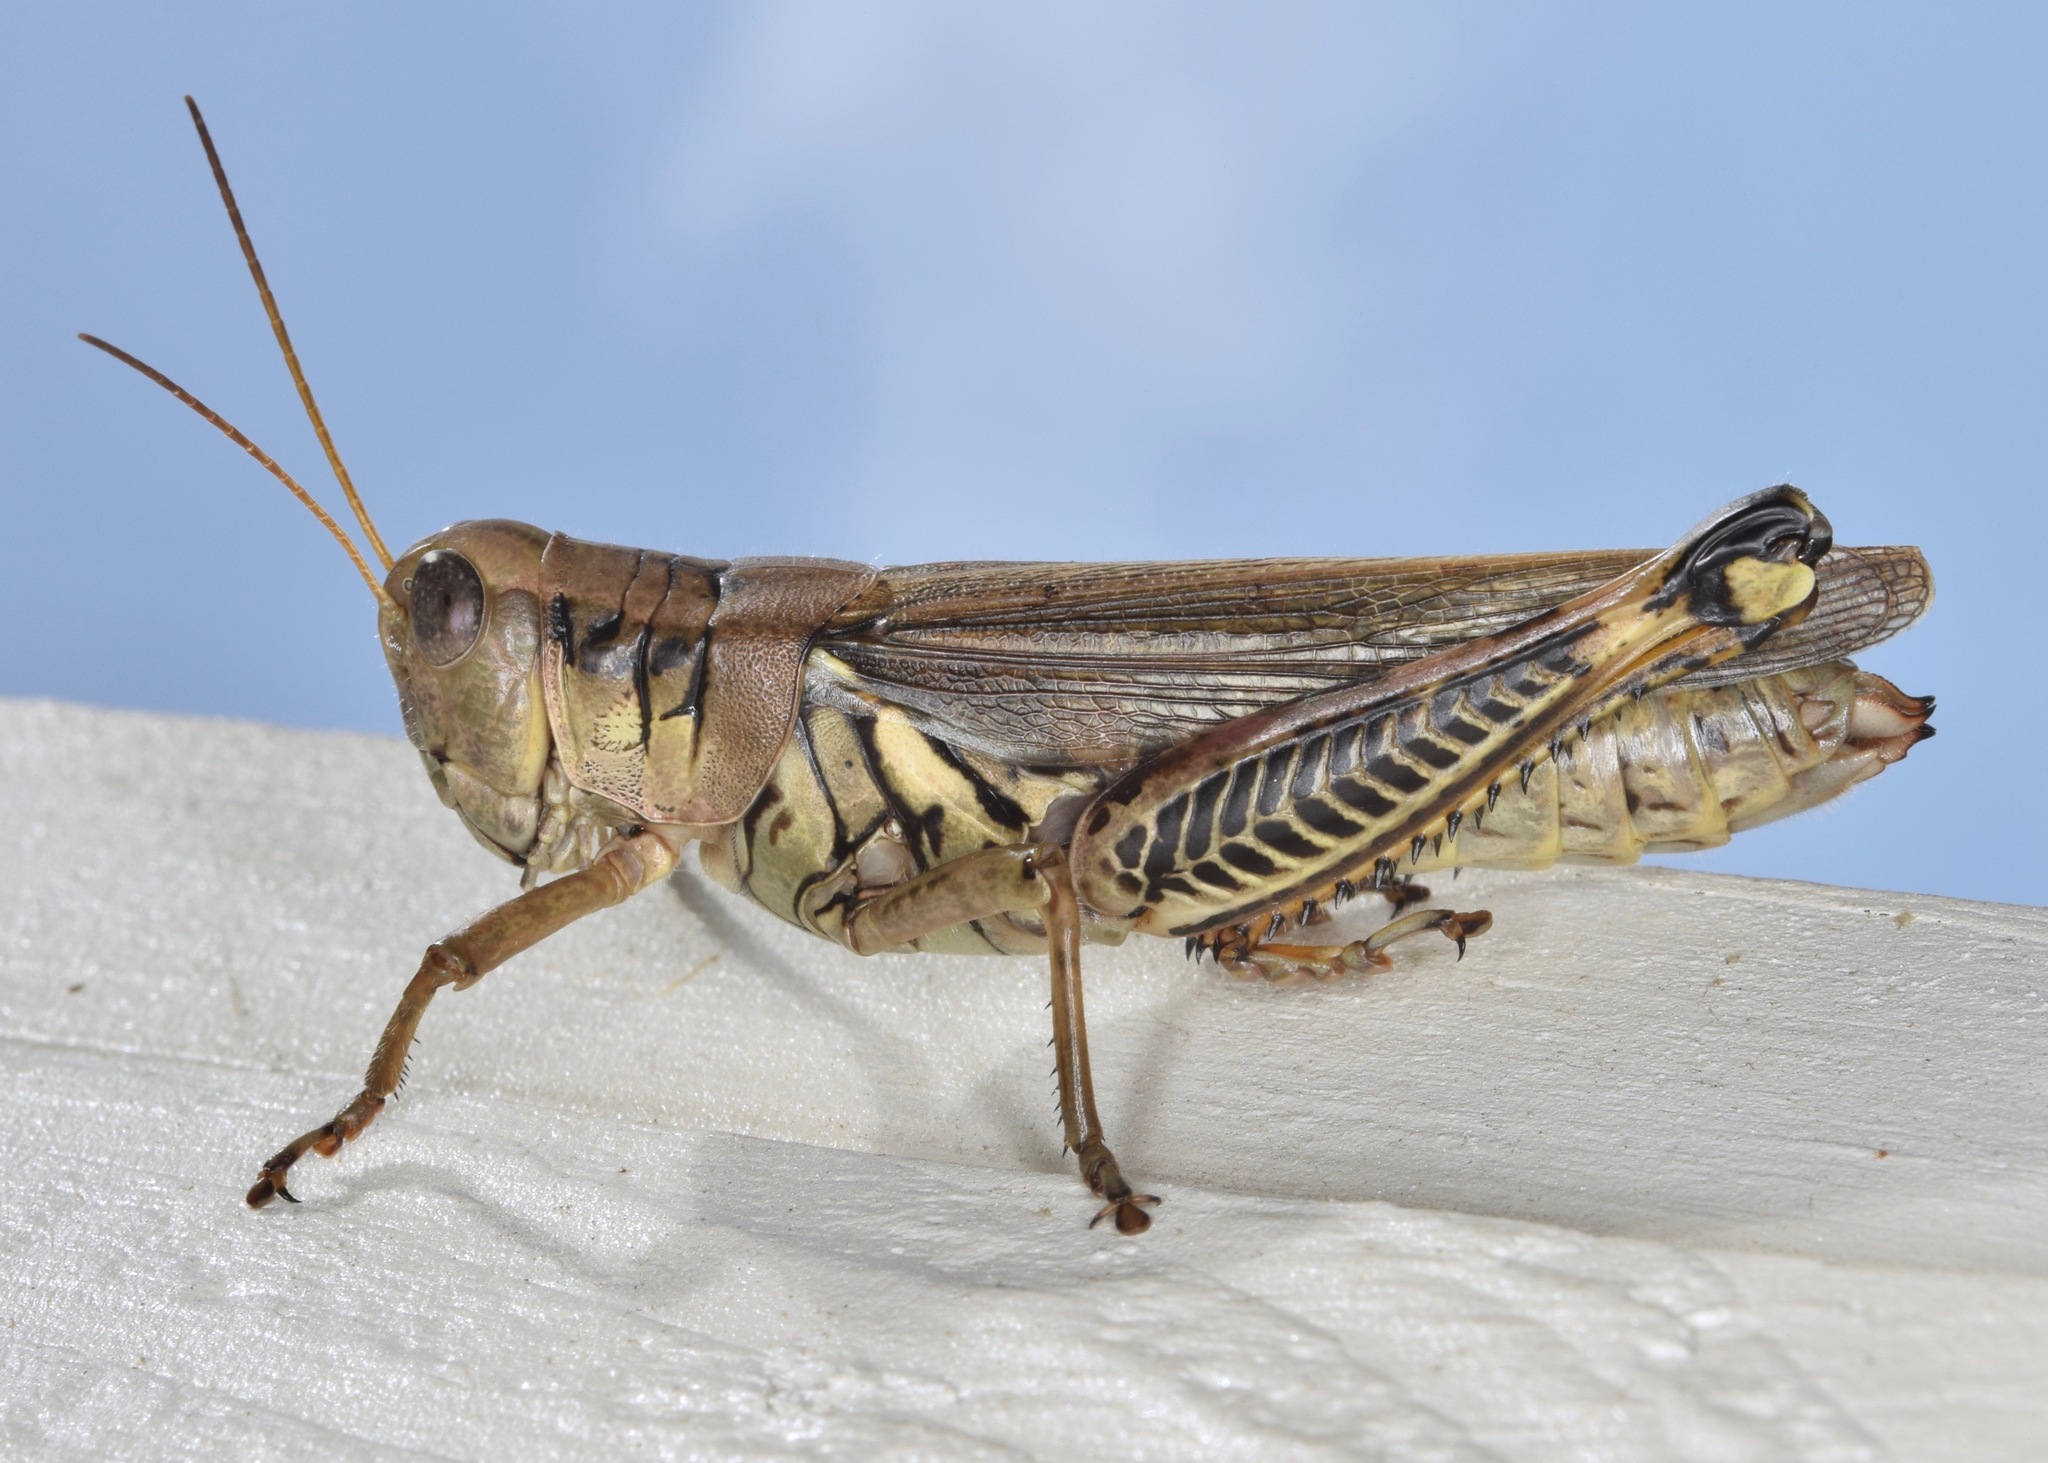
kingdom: Animalia
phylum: Arthropoda
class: Insecta
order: Orthoptera
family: Acrididae
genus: Melanoplus
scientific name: Melanoplus differentialis
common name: Differential grasshopper
